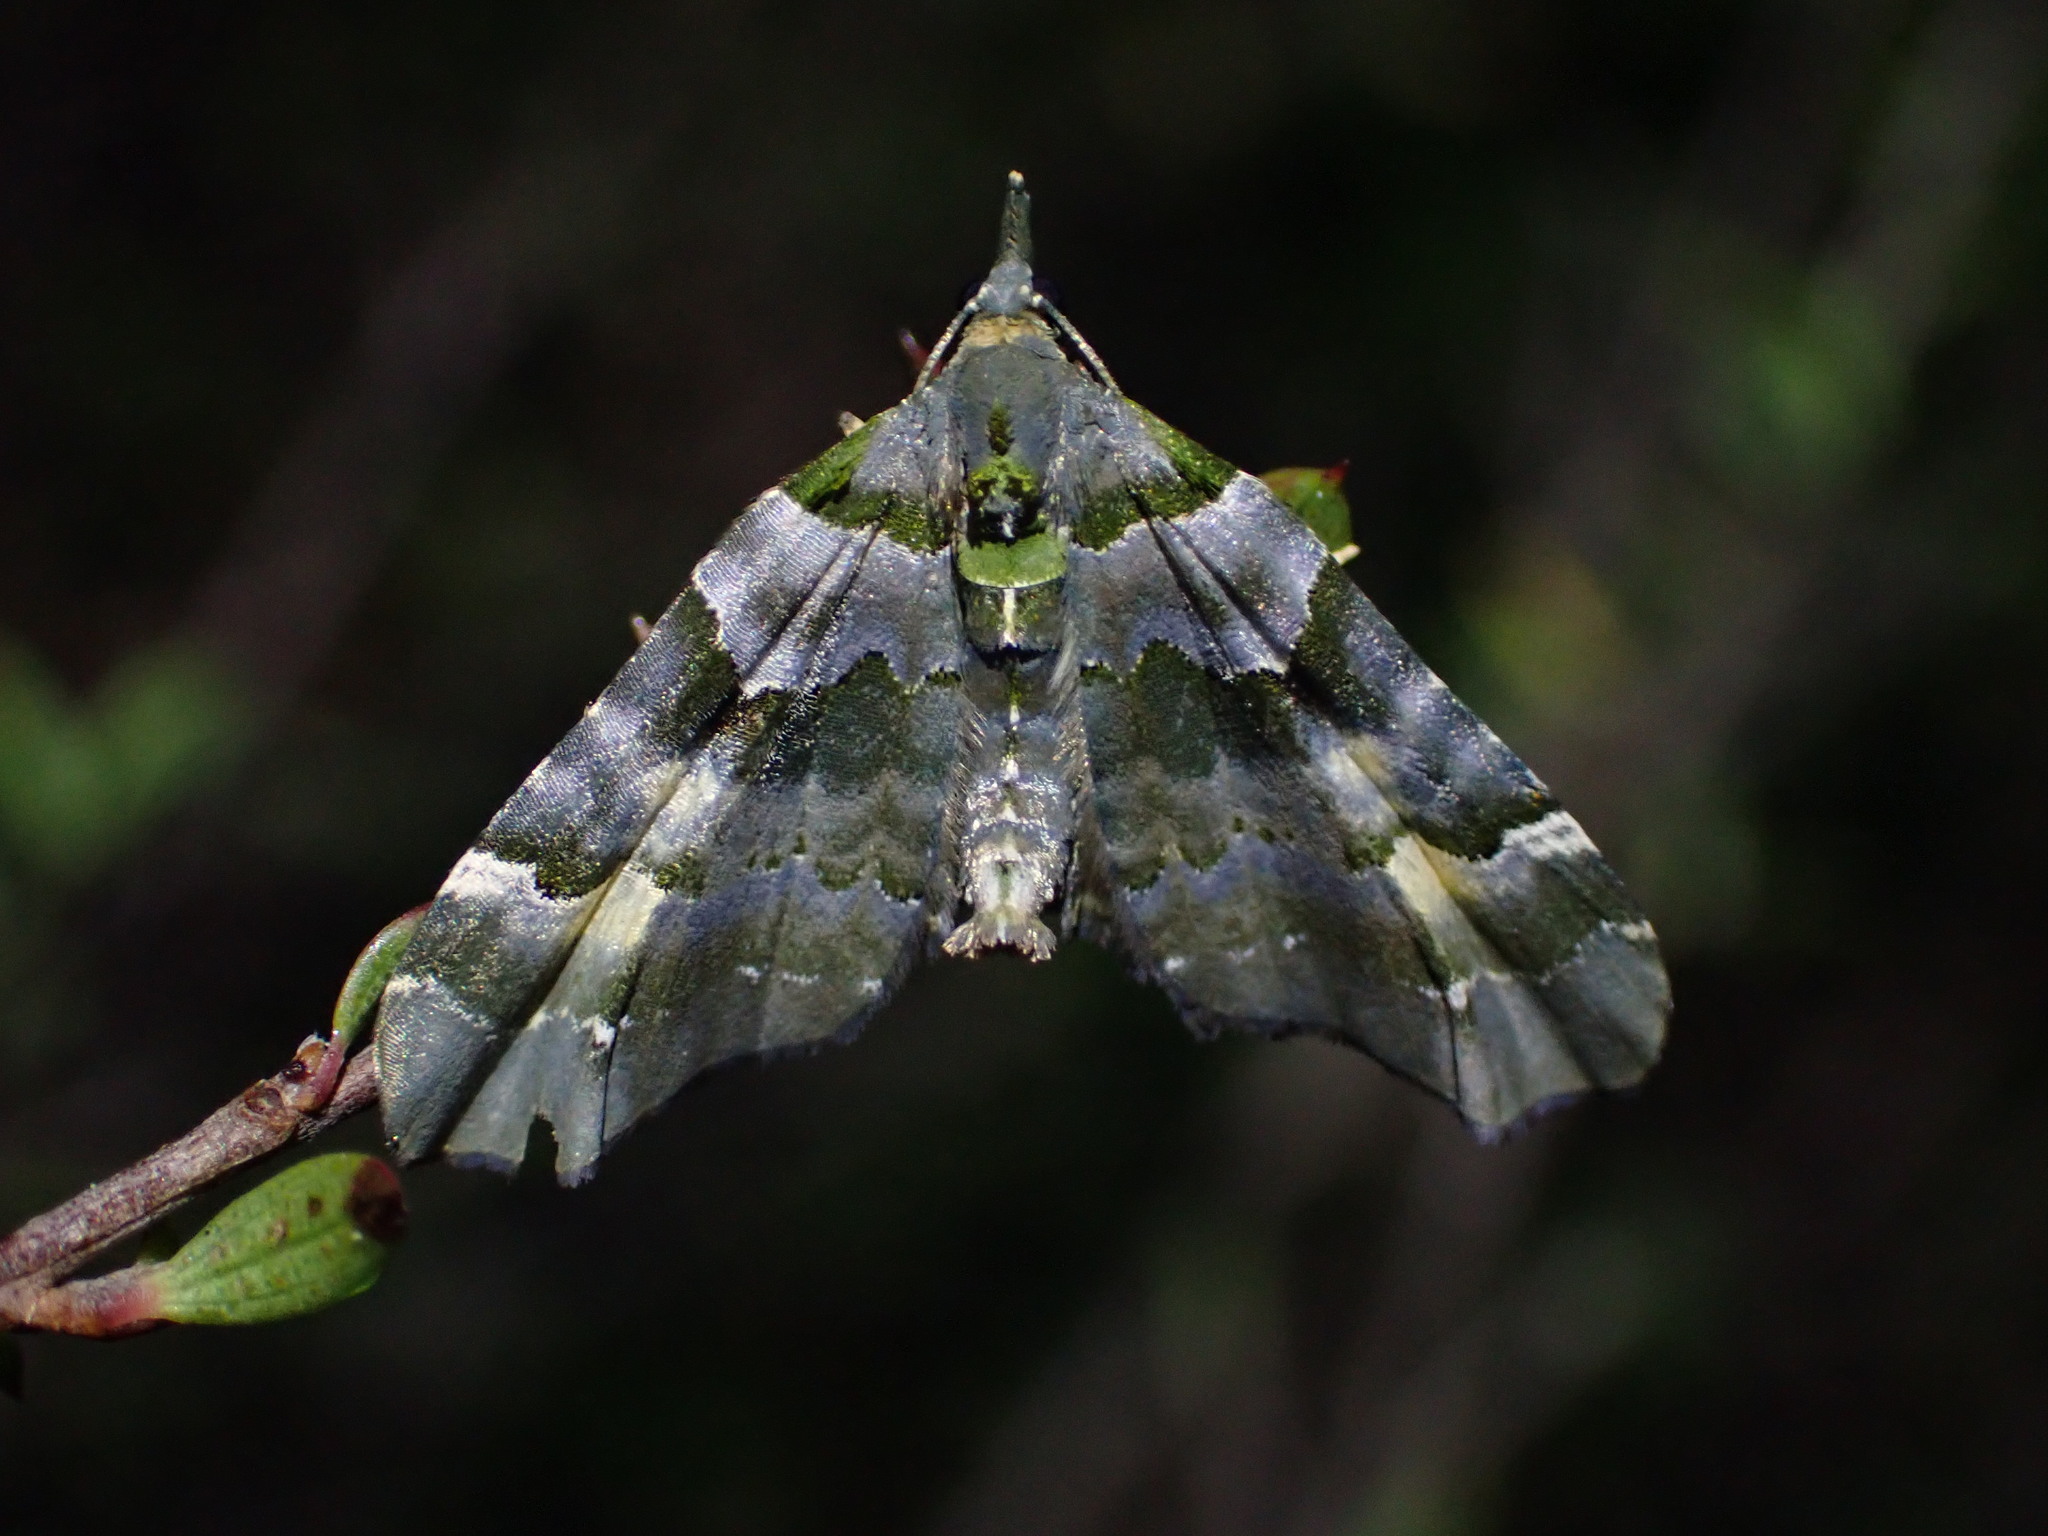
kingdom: Animalia
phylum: Arthropoda
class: Insecta
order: Lepidoptera
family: Geometridae
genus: Elvia
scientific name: Elvia glaucata
